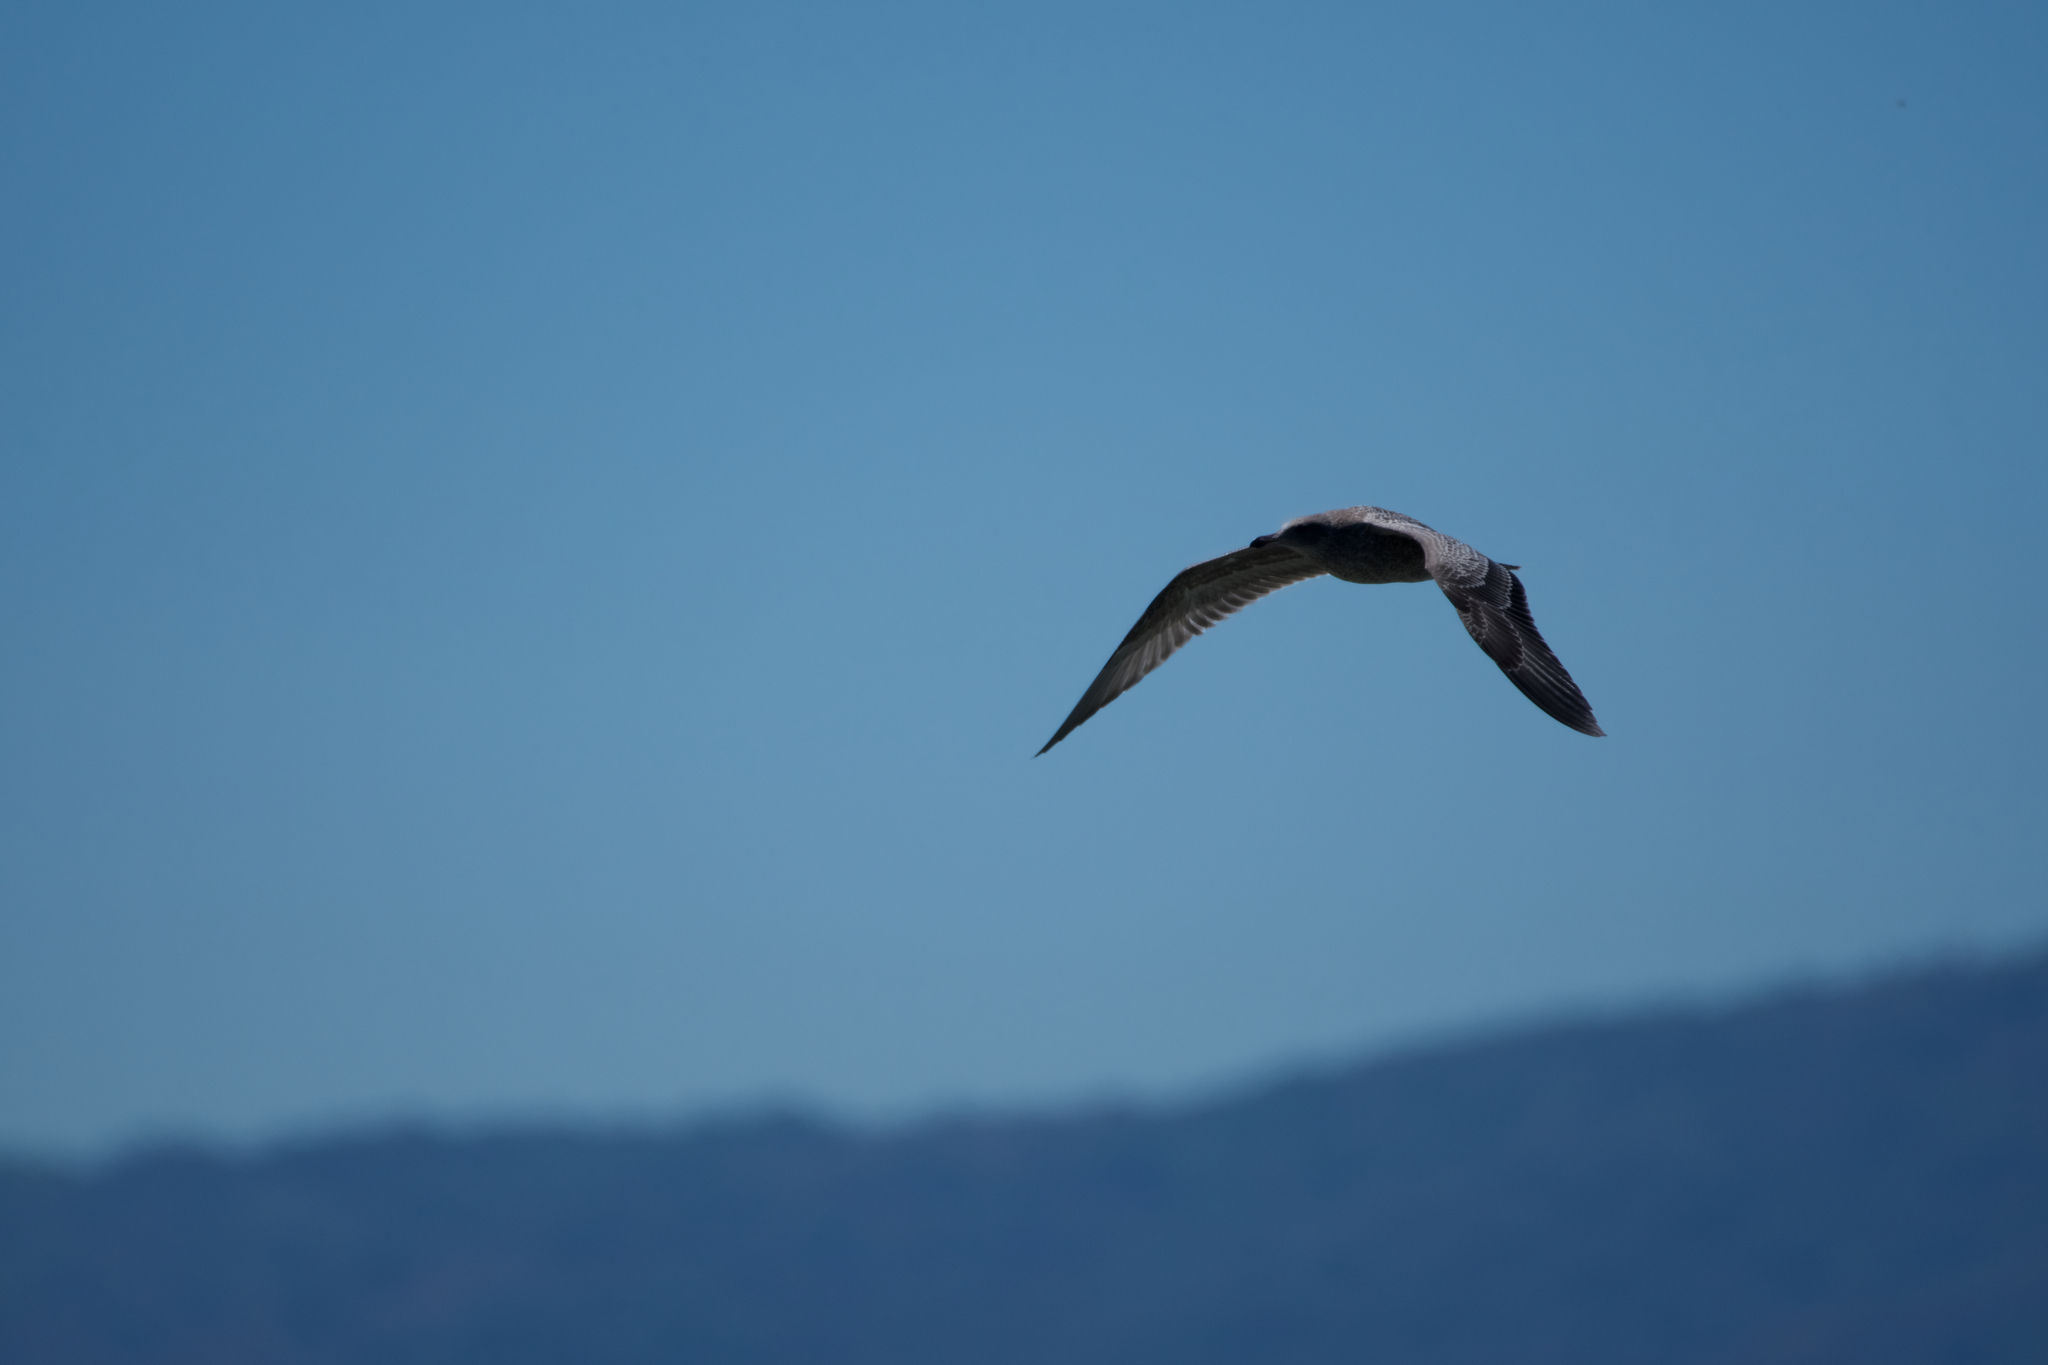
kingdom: Animalia
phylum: Chordata
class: Aves
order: Charadriiformes
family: Laridae
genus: Larus
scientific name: Larus occidentalis
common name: Western gull
